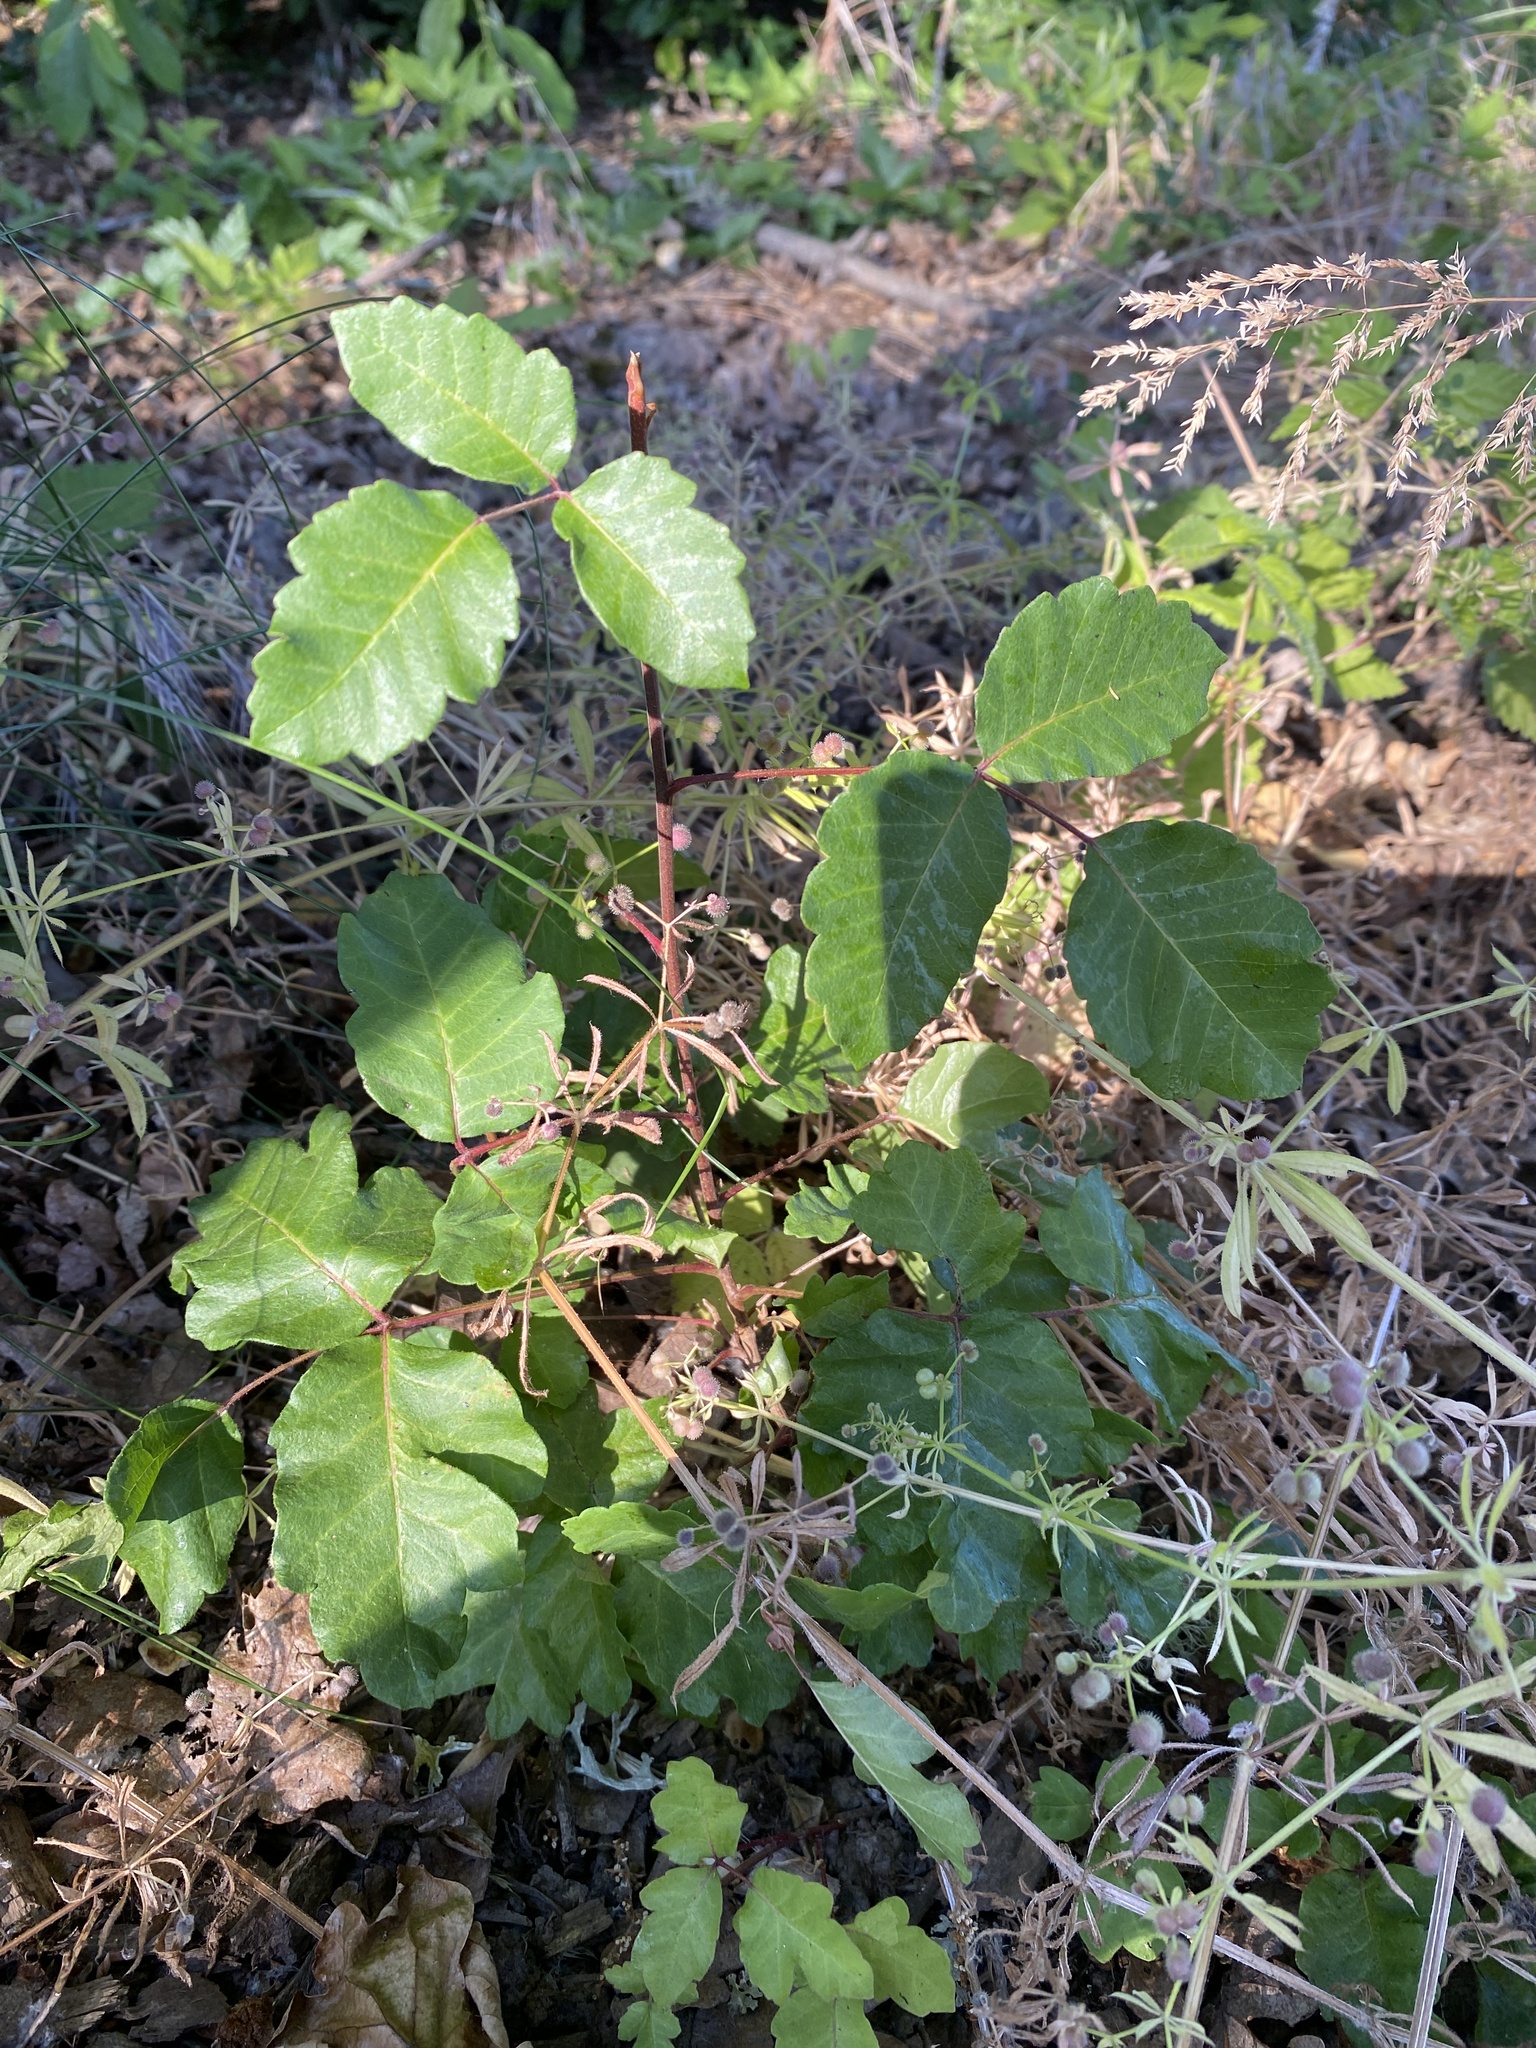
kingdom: Plantae
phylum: Tracheophyta
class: Magnoliopsida
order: Sapindales
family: Anacardiaceae
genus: Toxicodendron
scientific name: Toxicodendron diversilobum
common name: Pacific poison-oak
